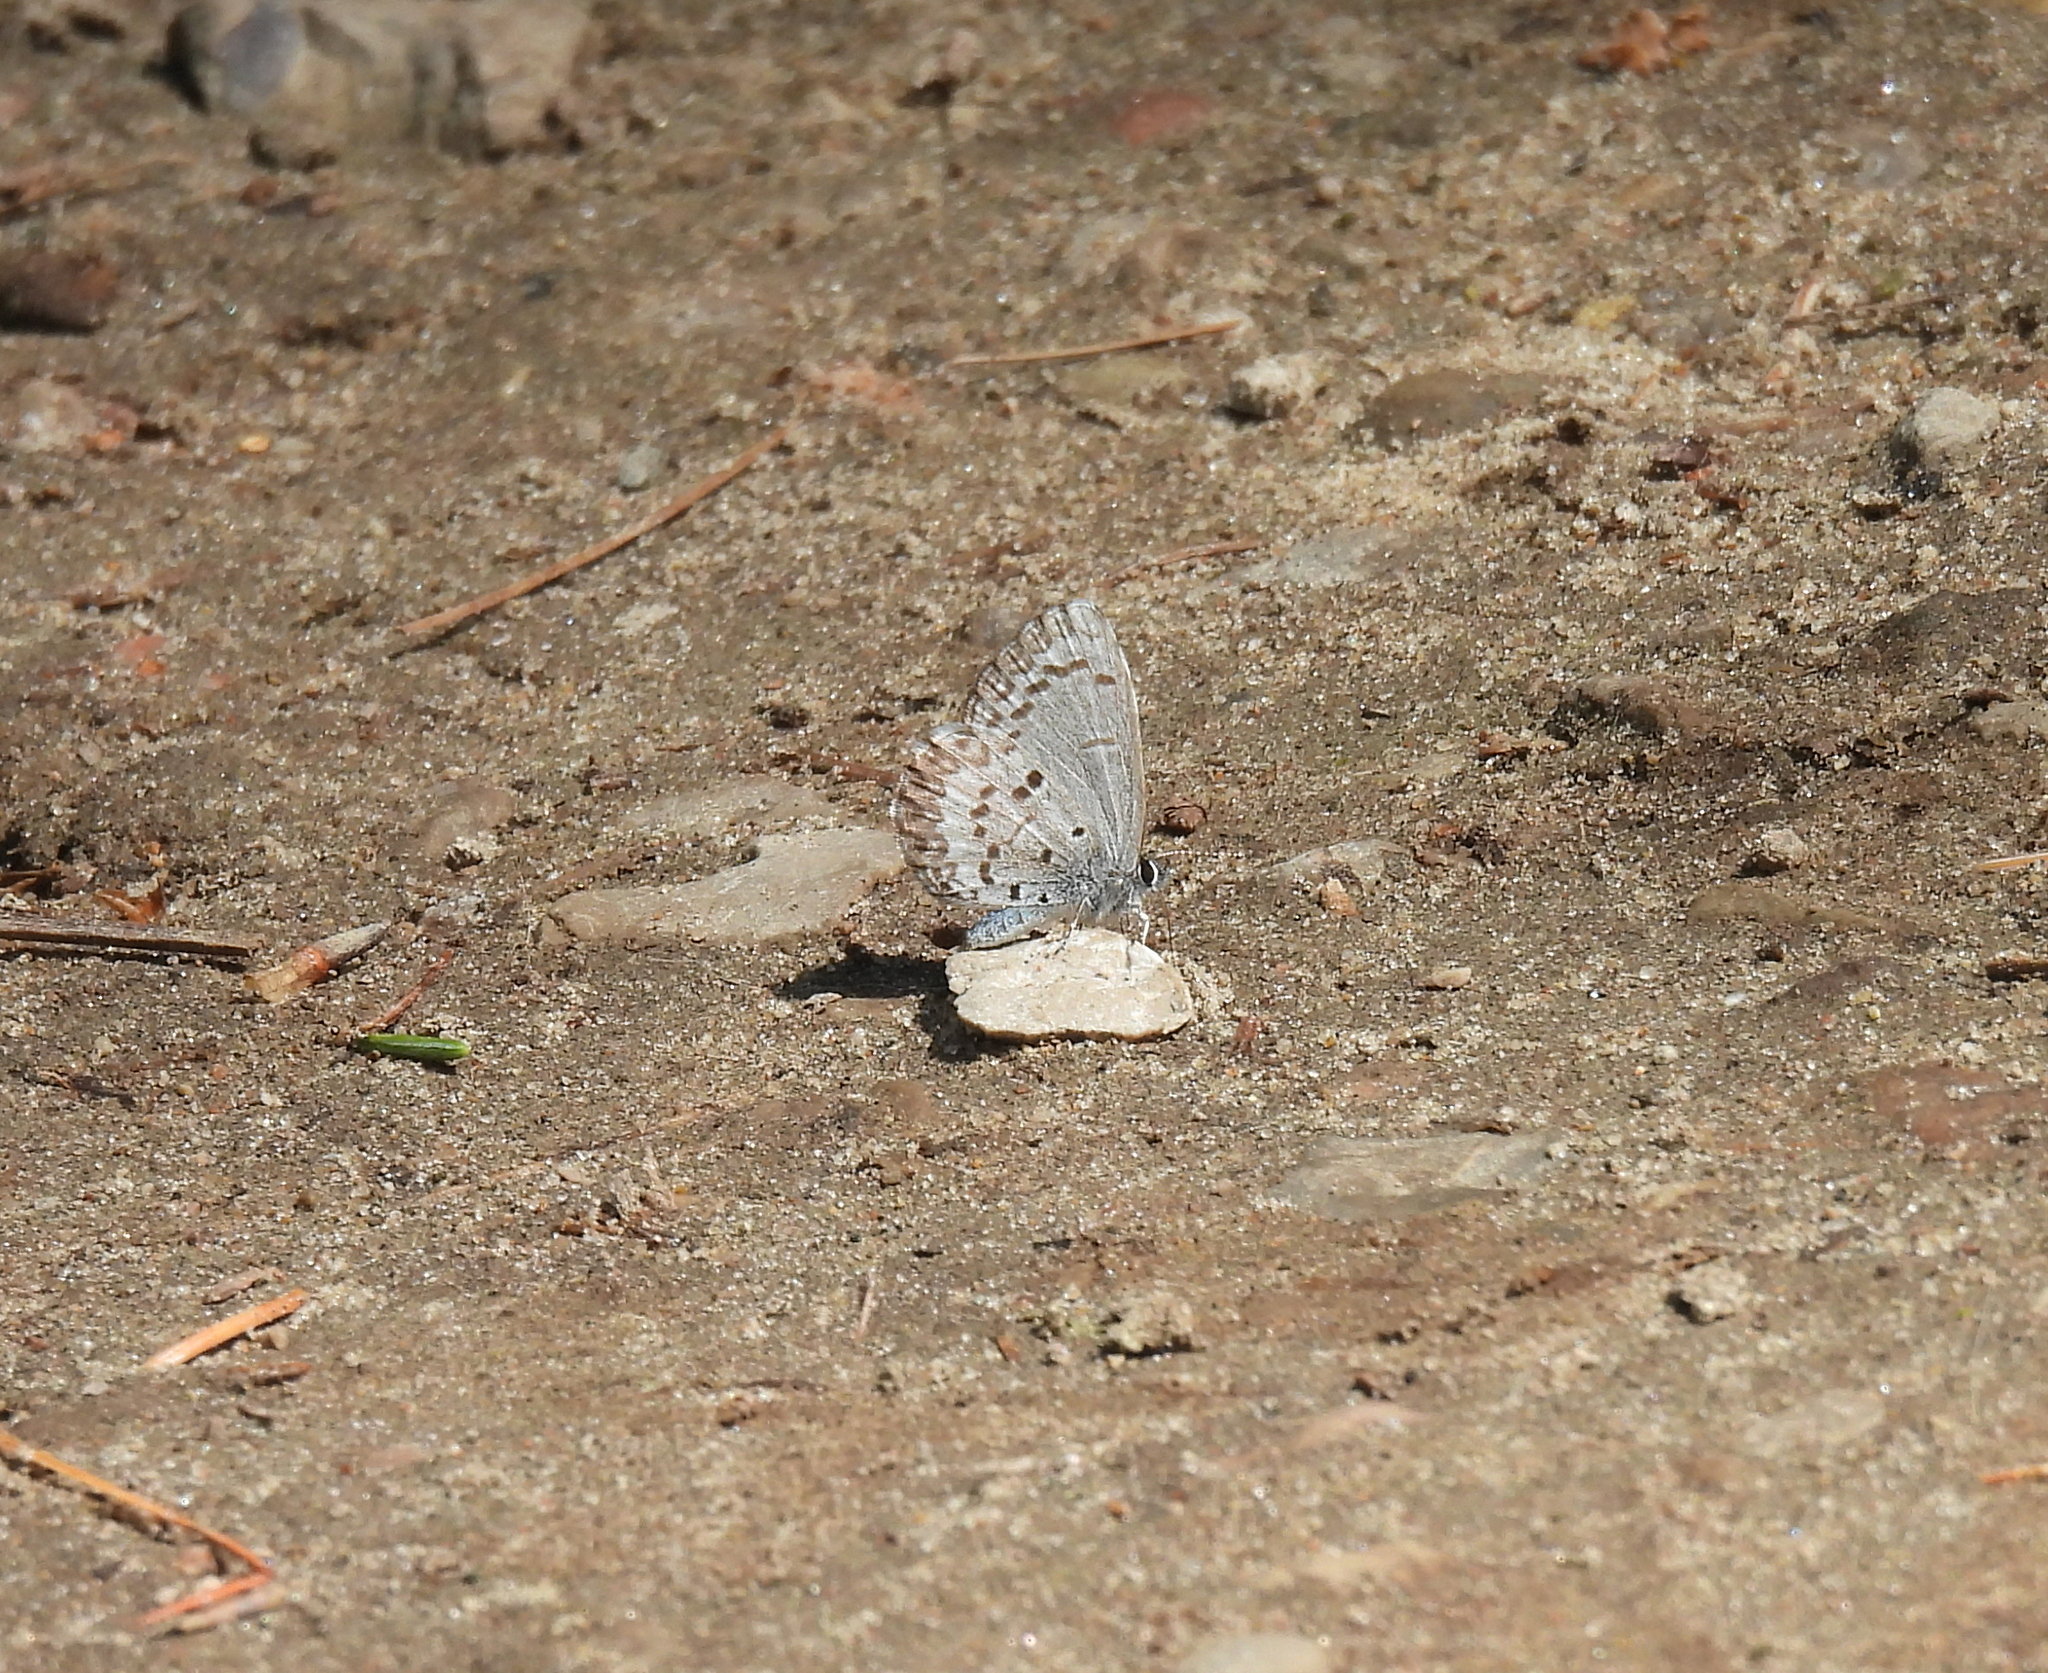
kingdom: Animalia
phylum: Arthropoda
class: Insecta
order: Lepidoptera
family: Lycaenidae
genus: Celastrina
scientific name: Celastrina lucia
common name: Lucia azure
